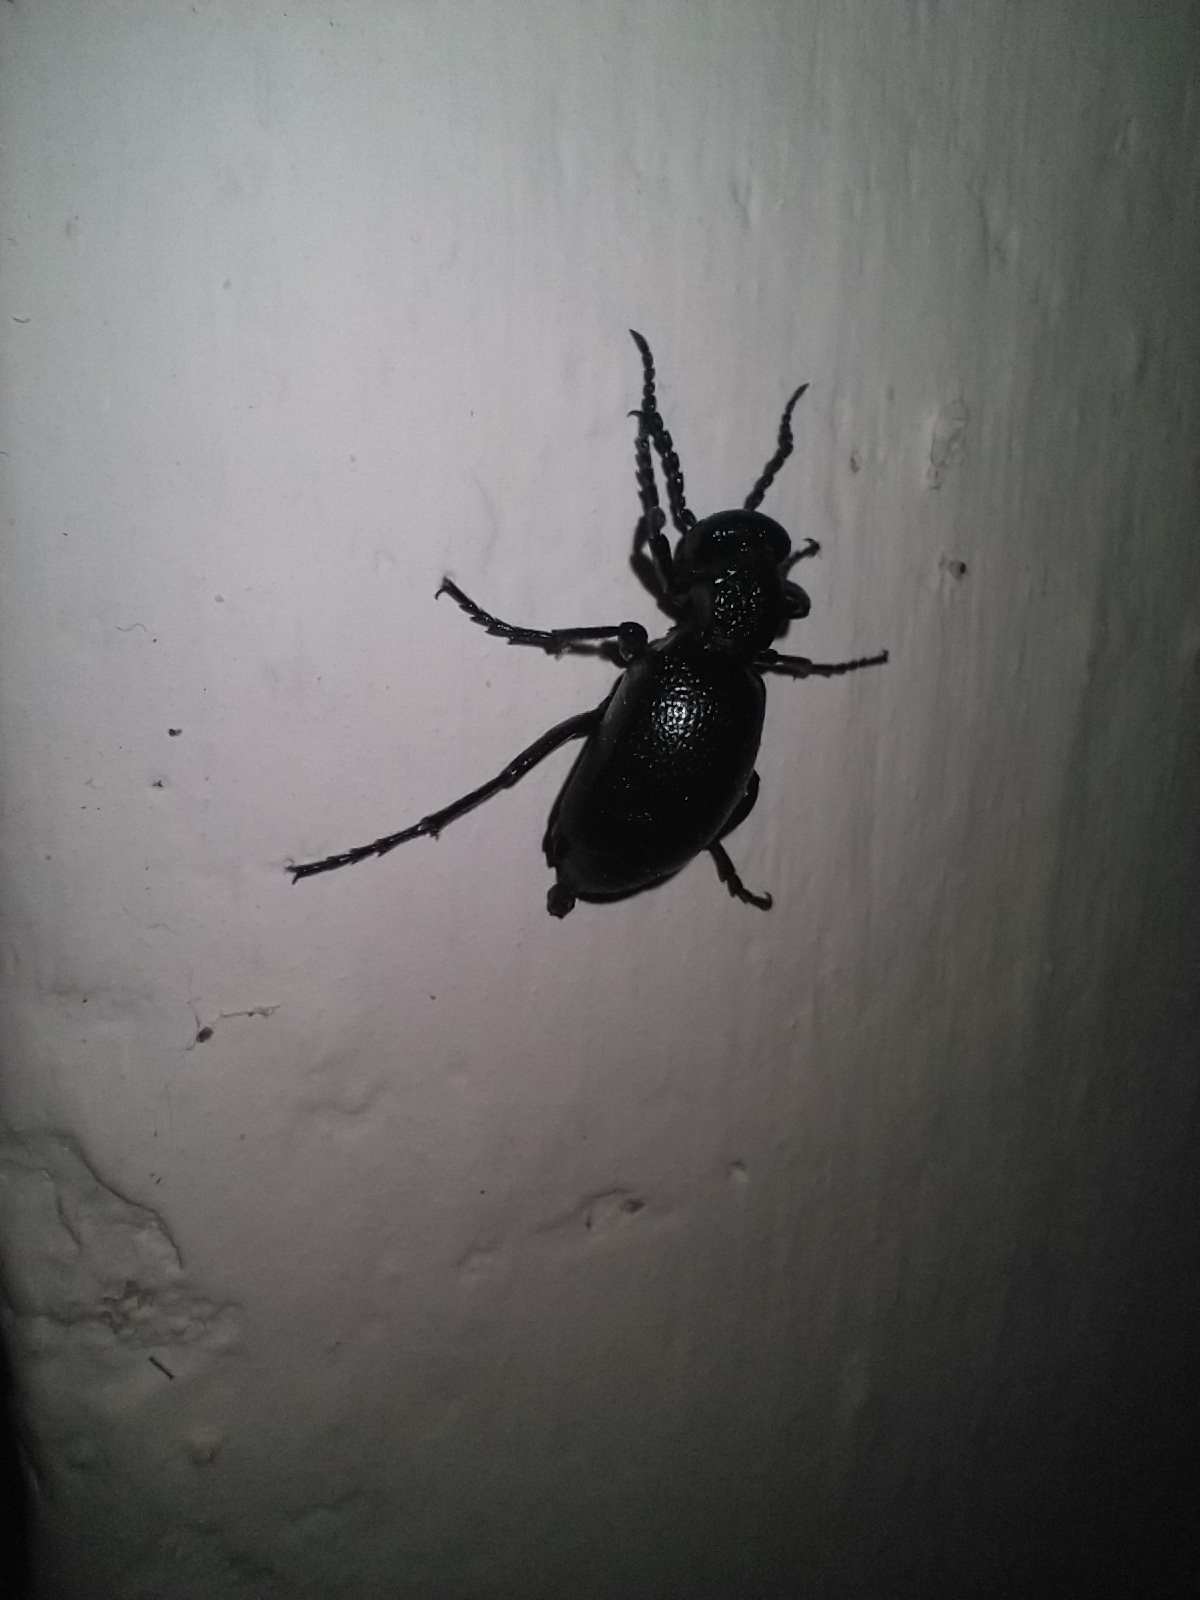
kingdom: Animalia
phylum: Arthropoda
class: Insecta
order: Coleoptera
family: Meloidae
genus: Meloe
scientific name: Meloe proscarabaeus
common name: Black oil-beetle
